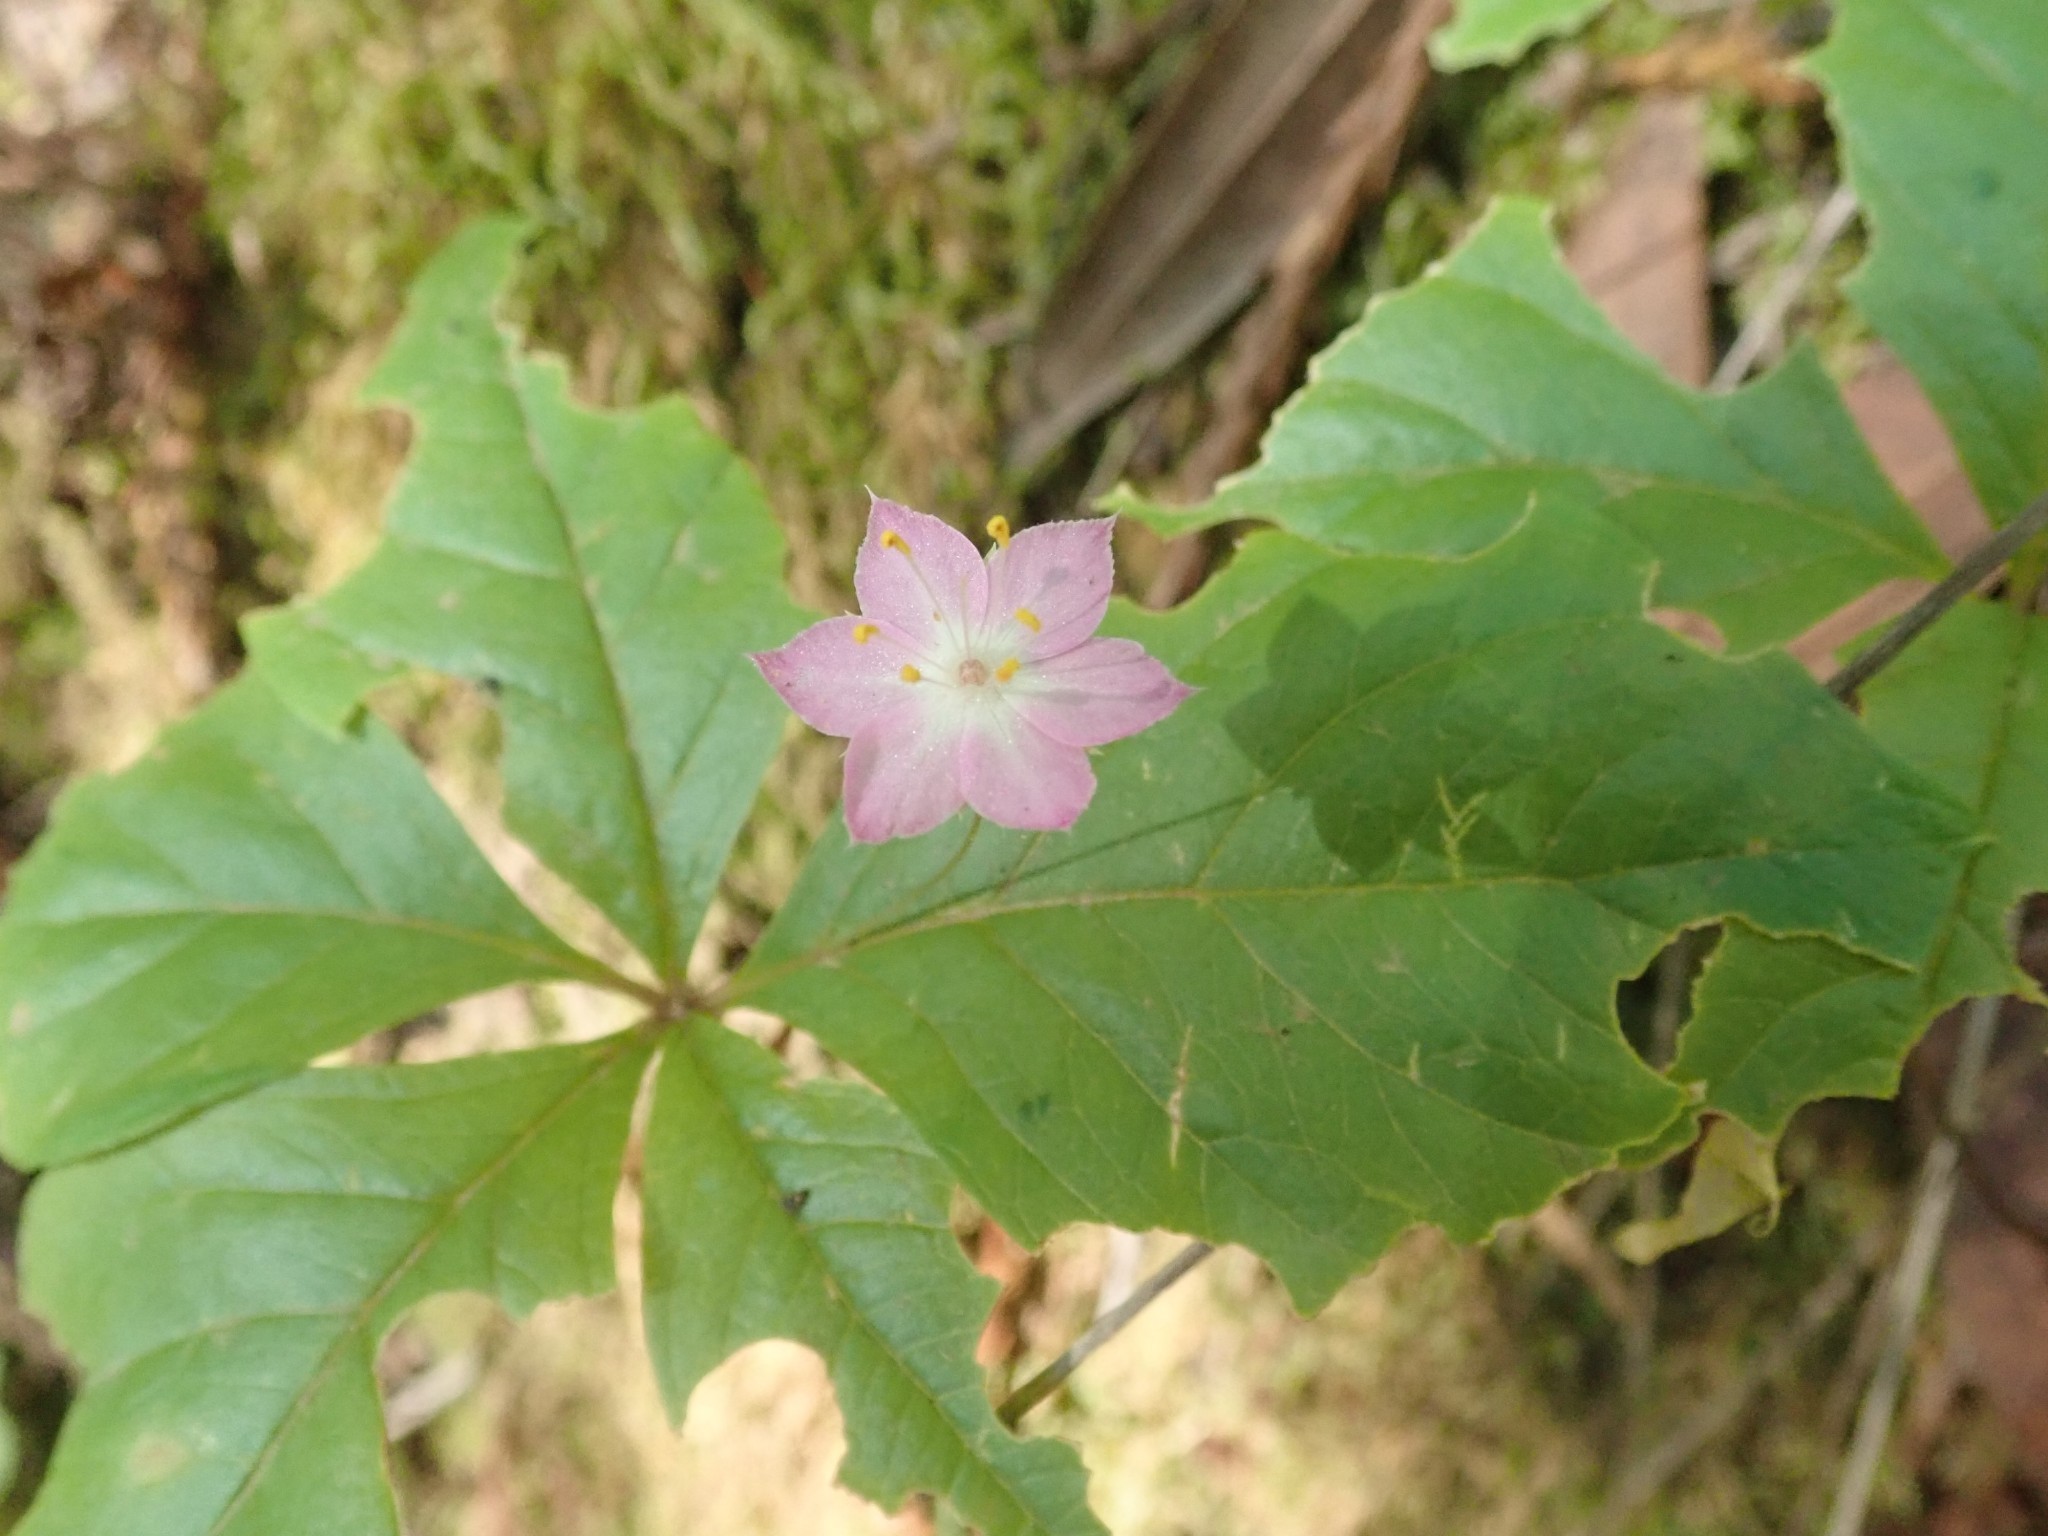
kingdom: Plantae
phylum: Tracheophyta
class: Magnoliopsida
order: Ericales
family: Primulaceae
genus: Lysimachia
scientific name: Lysimachia latifolia
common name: Pacific starflower
